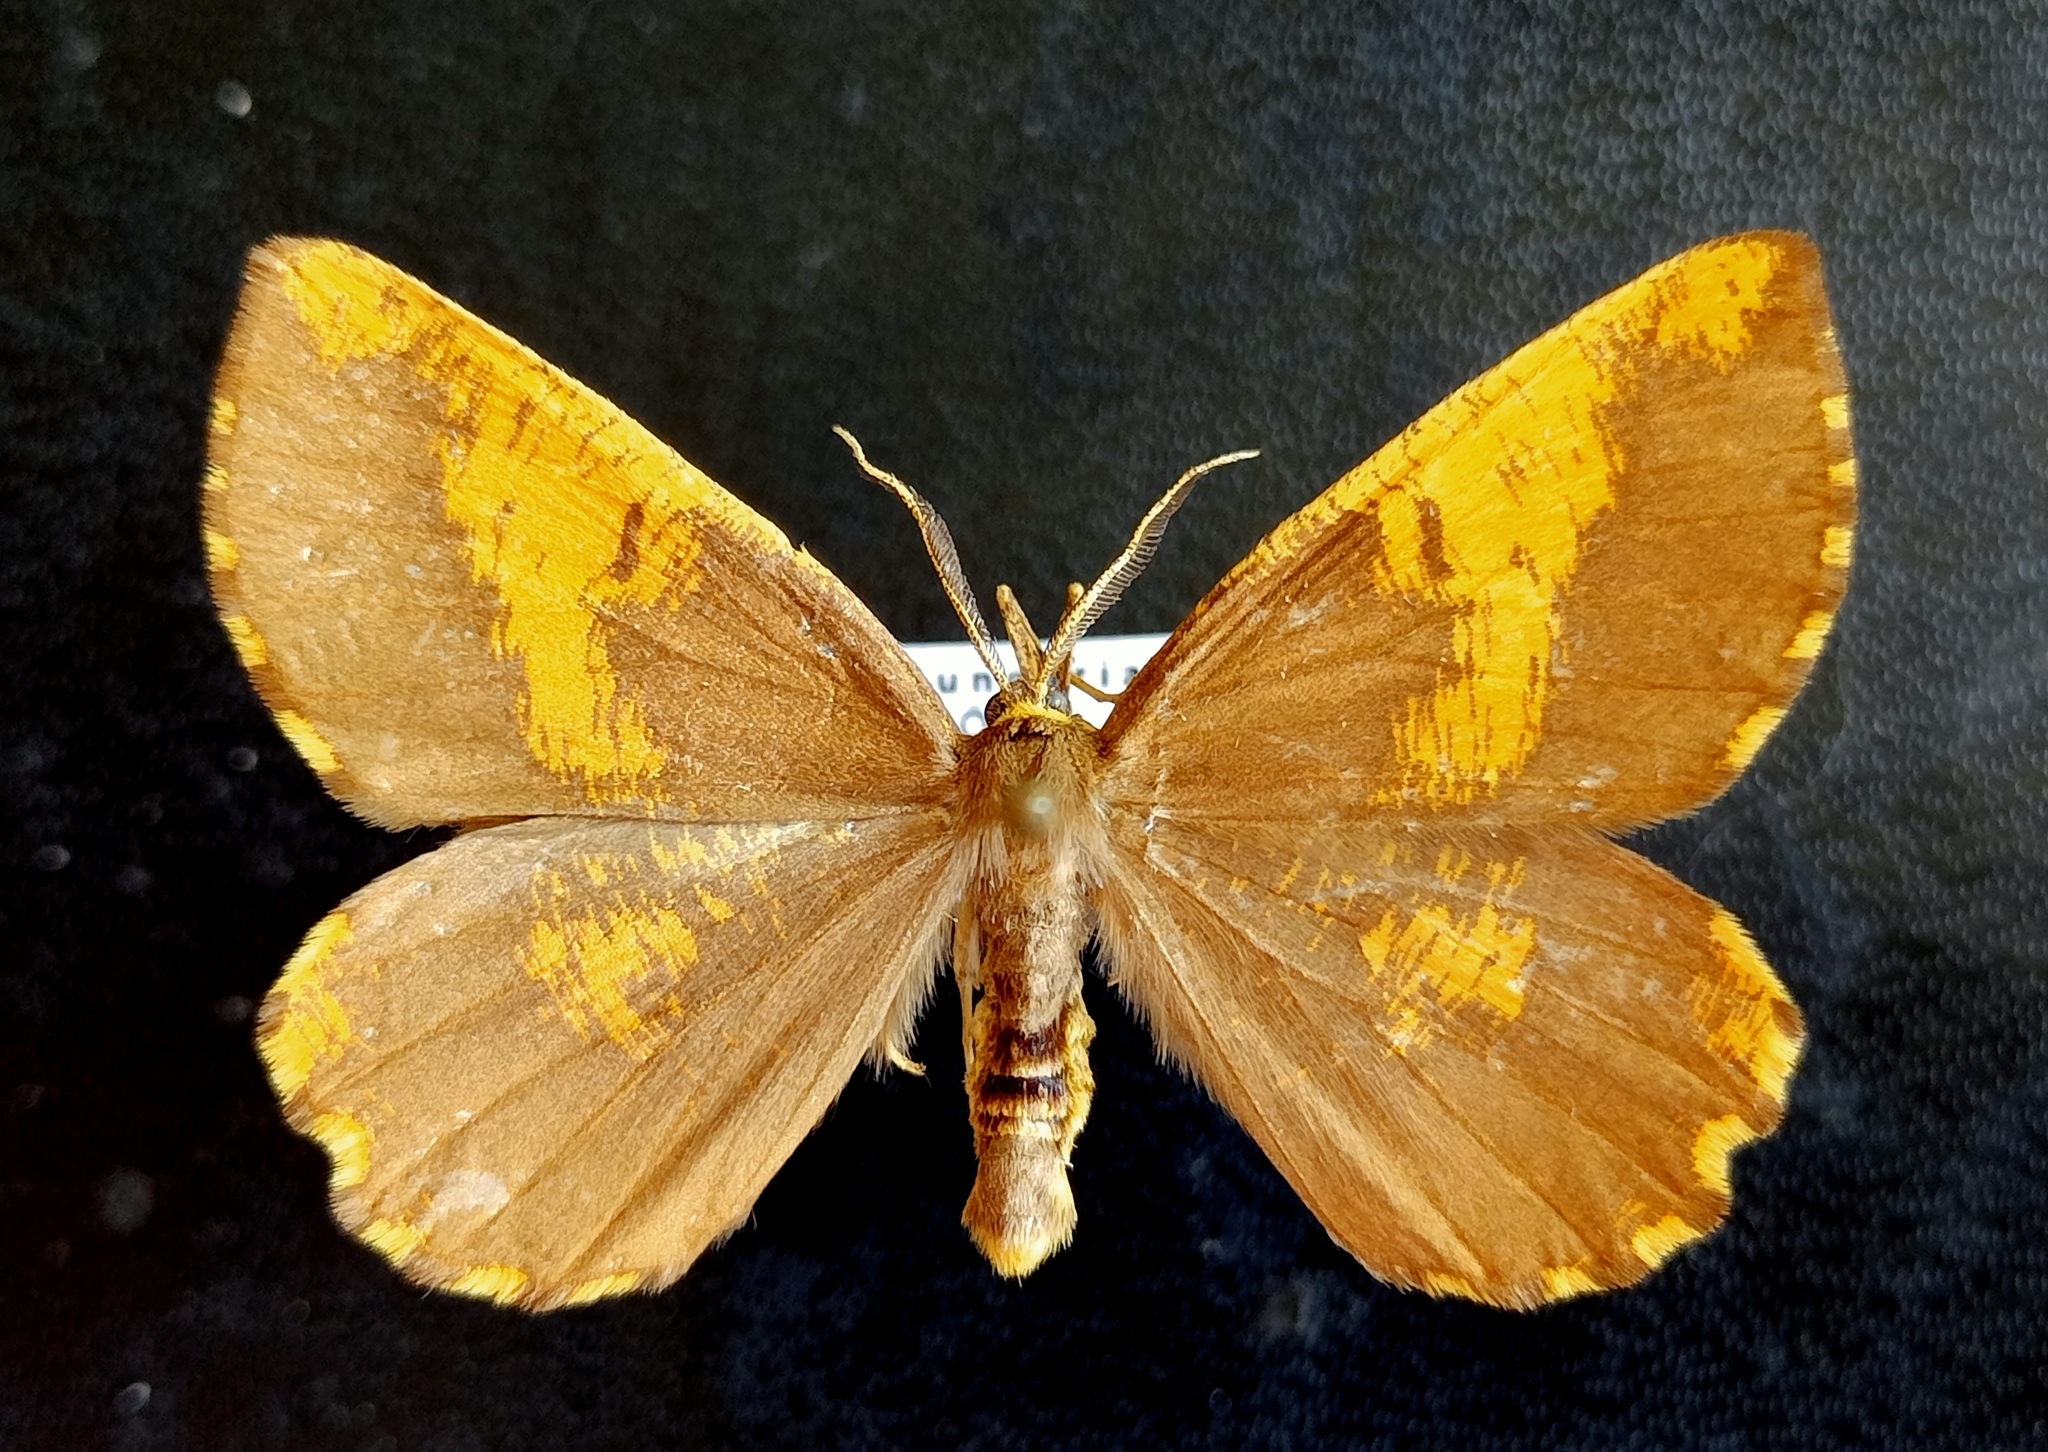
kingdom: Animalia
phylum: Arthropoda
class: Insecta
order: Lepidoptera
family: Geometridae
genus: Angerona
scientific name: Angerona prunaria
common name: Orange moth
